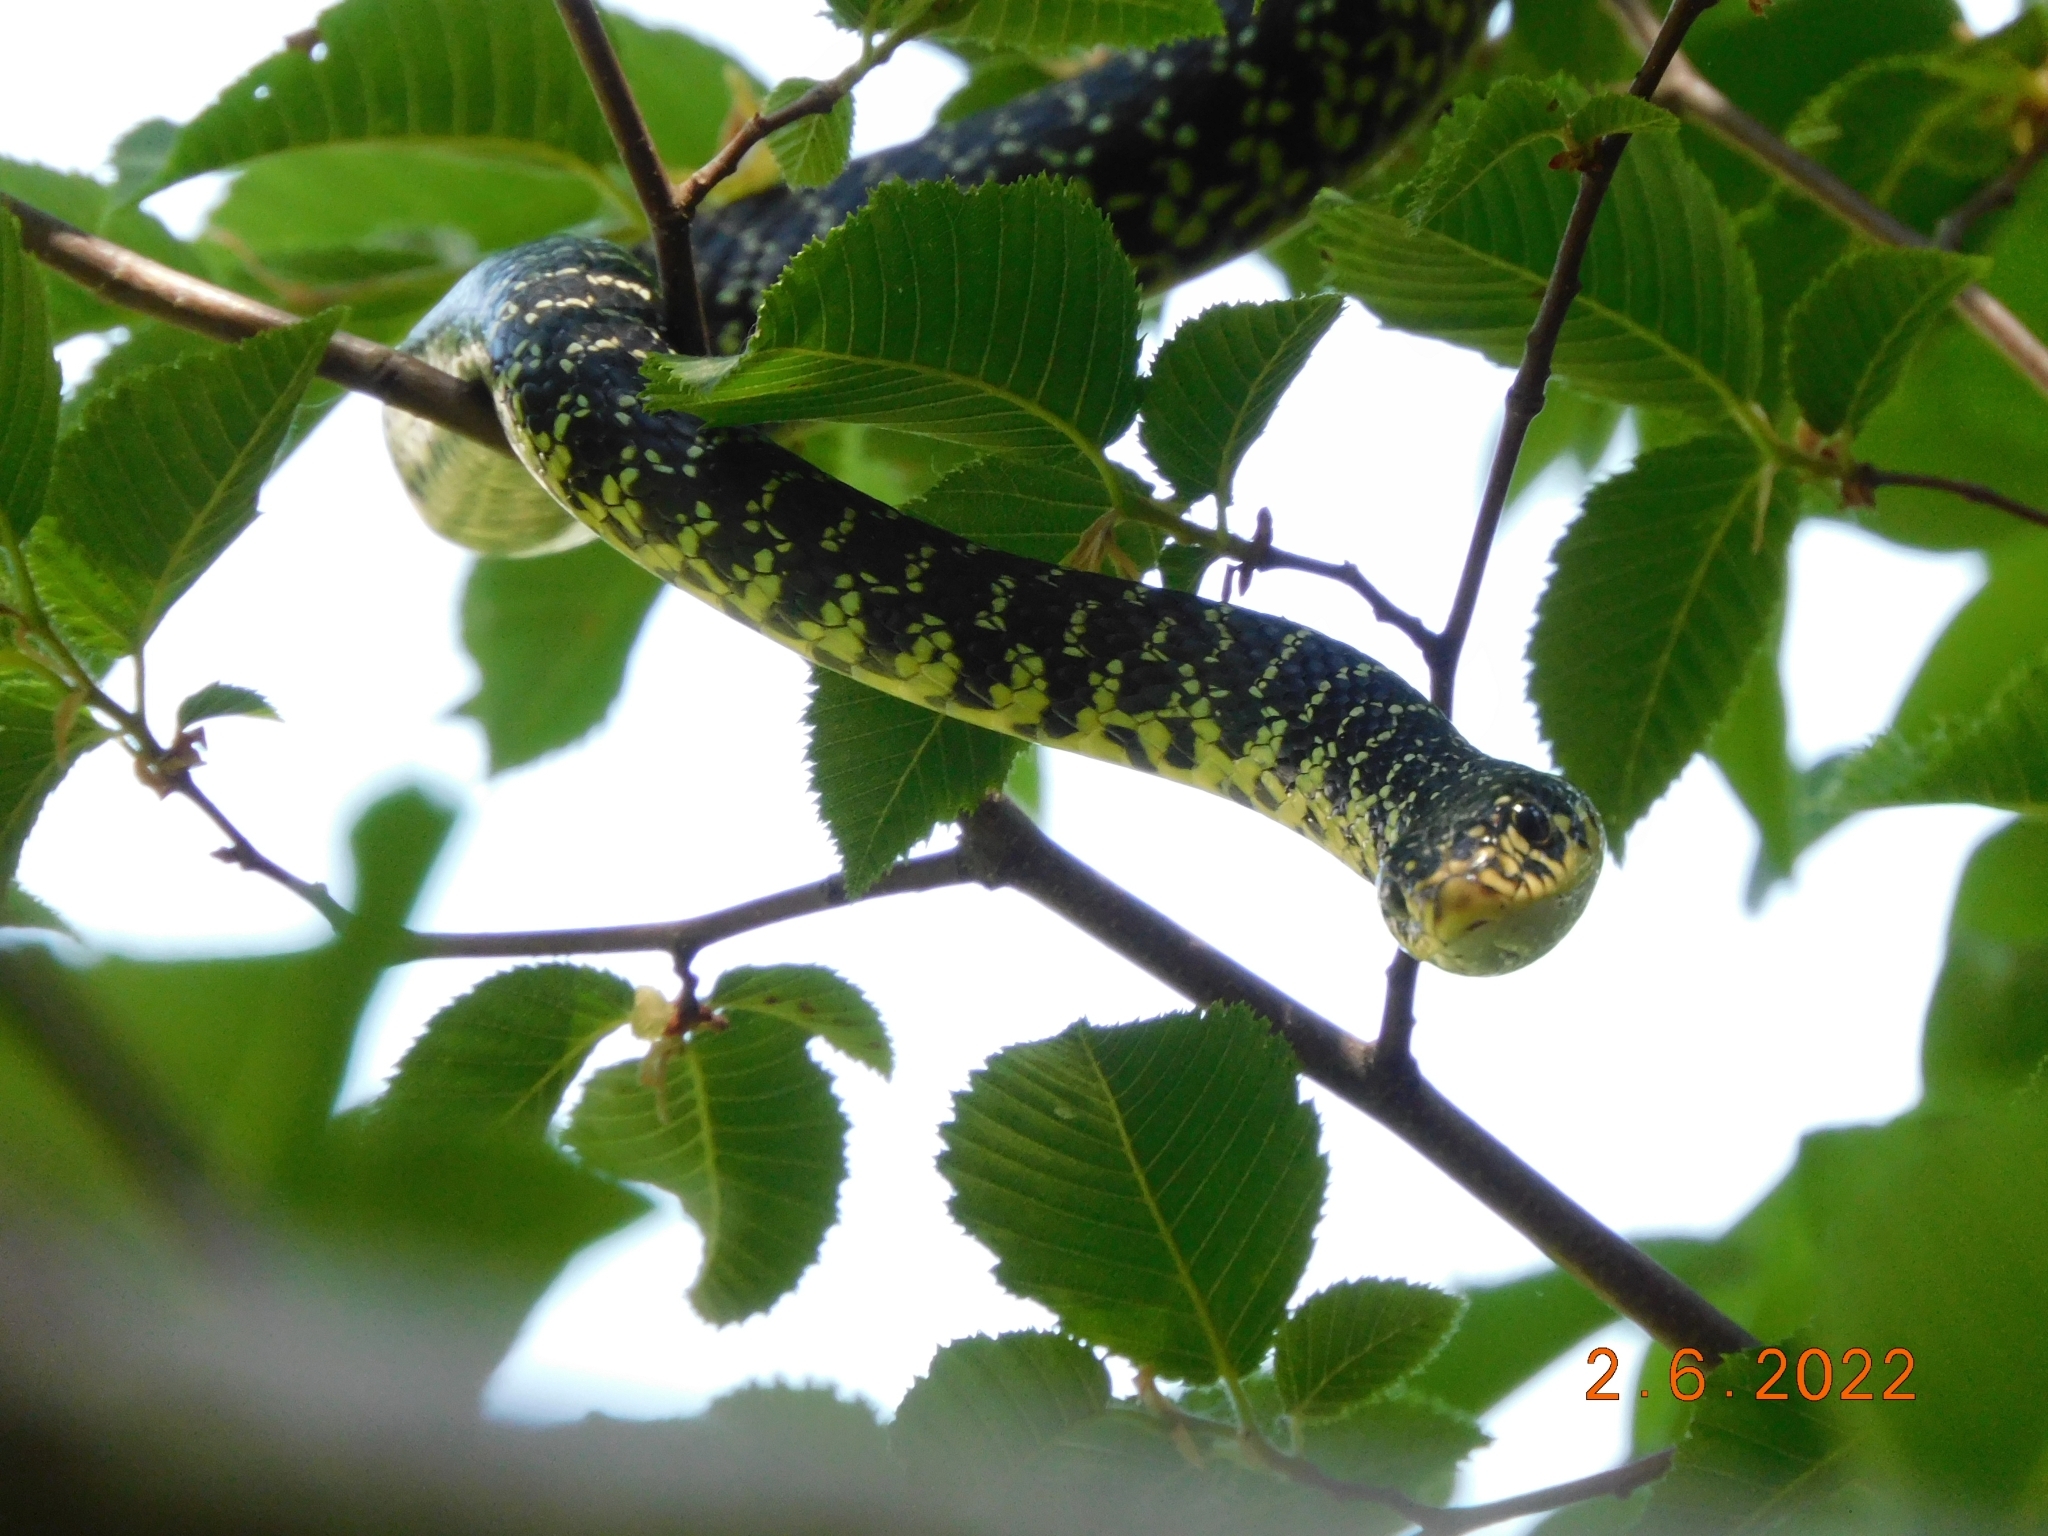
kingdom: Animalia
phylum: Chordata
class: Squamata
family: Colubridae
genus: Hierophis
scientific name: Hierophis viridiflavus
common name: Green whip snake
